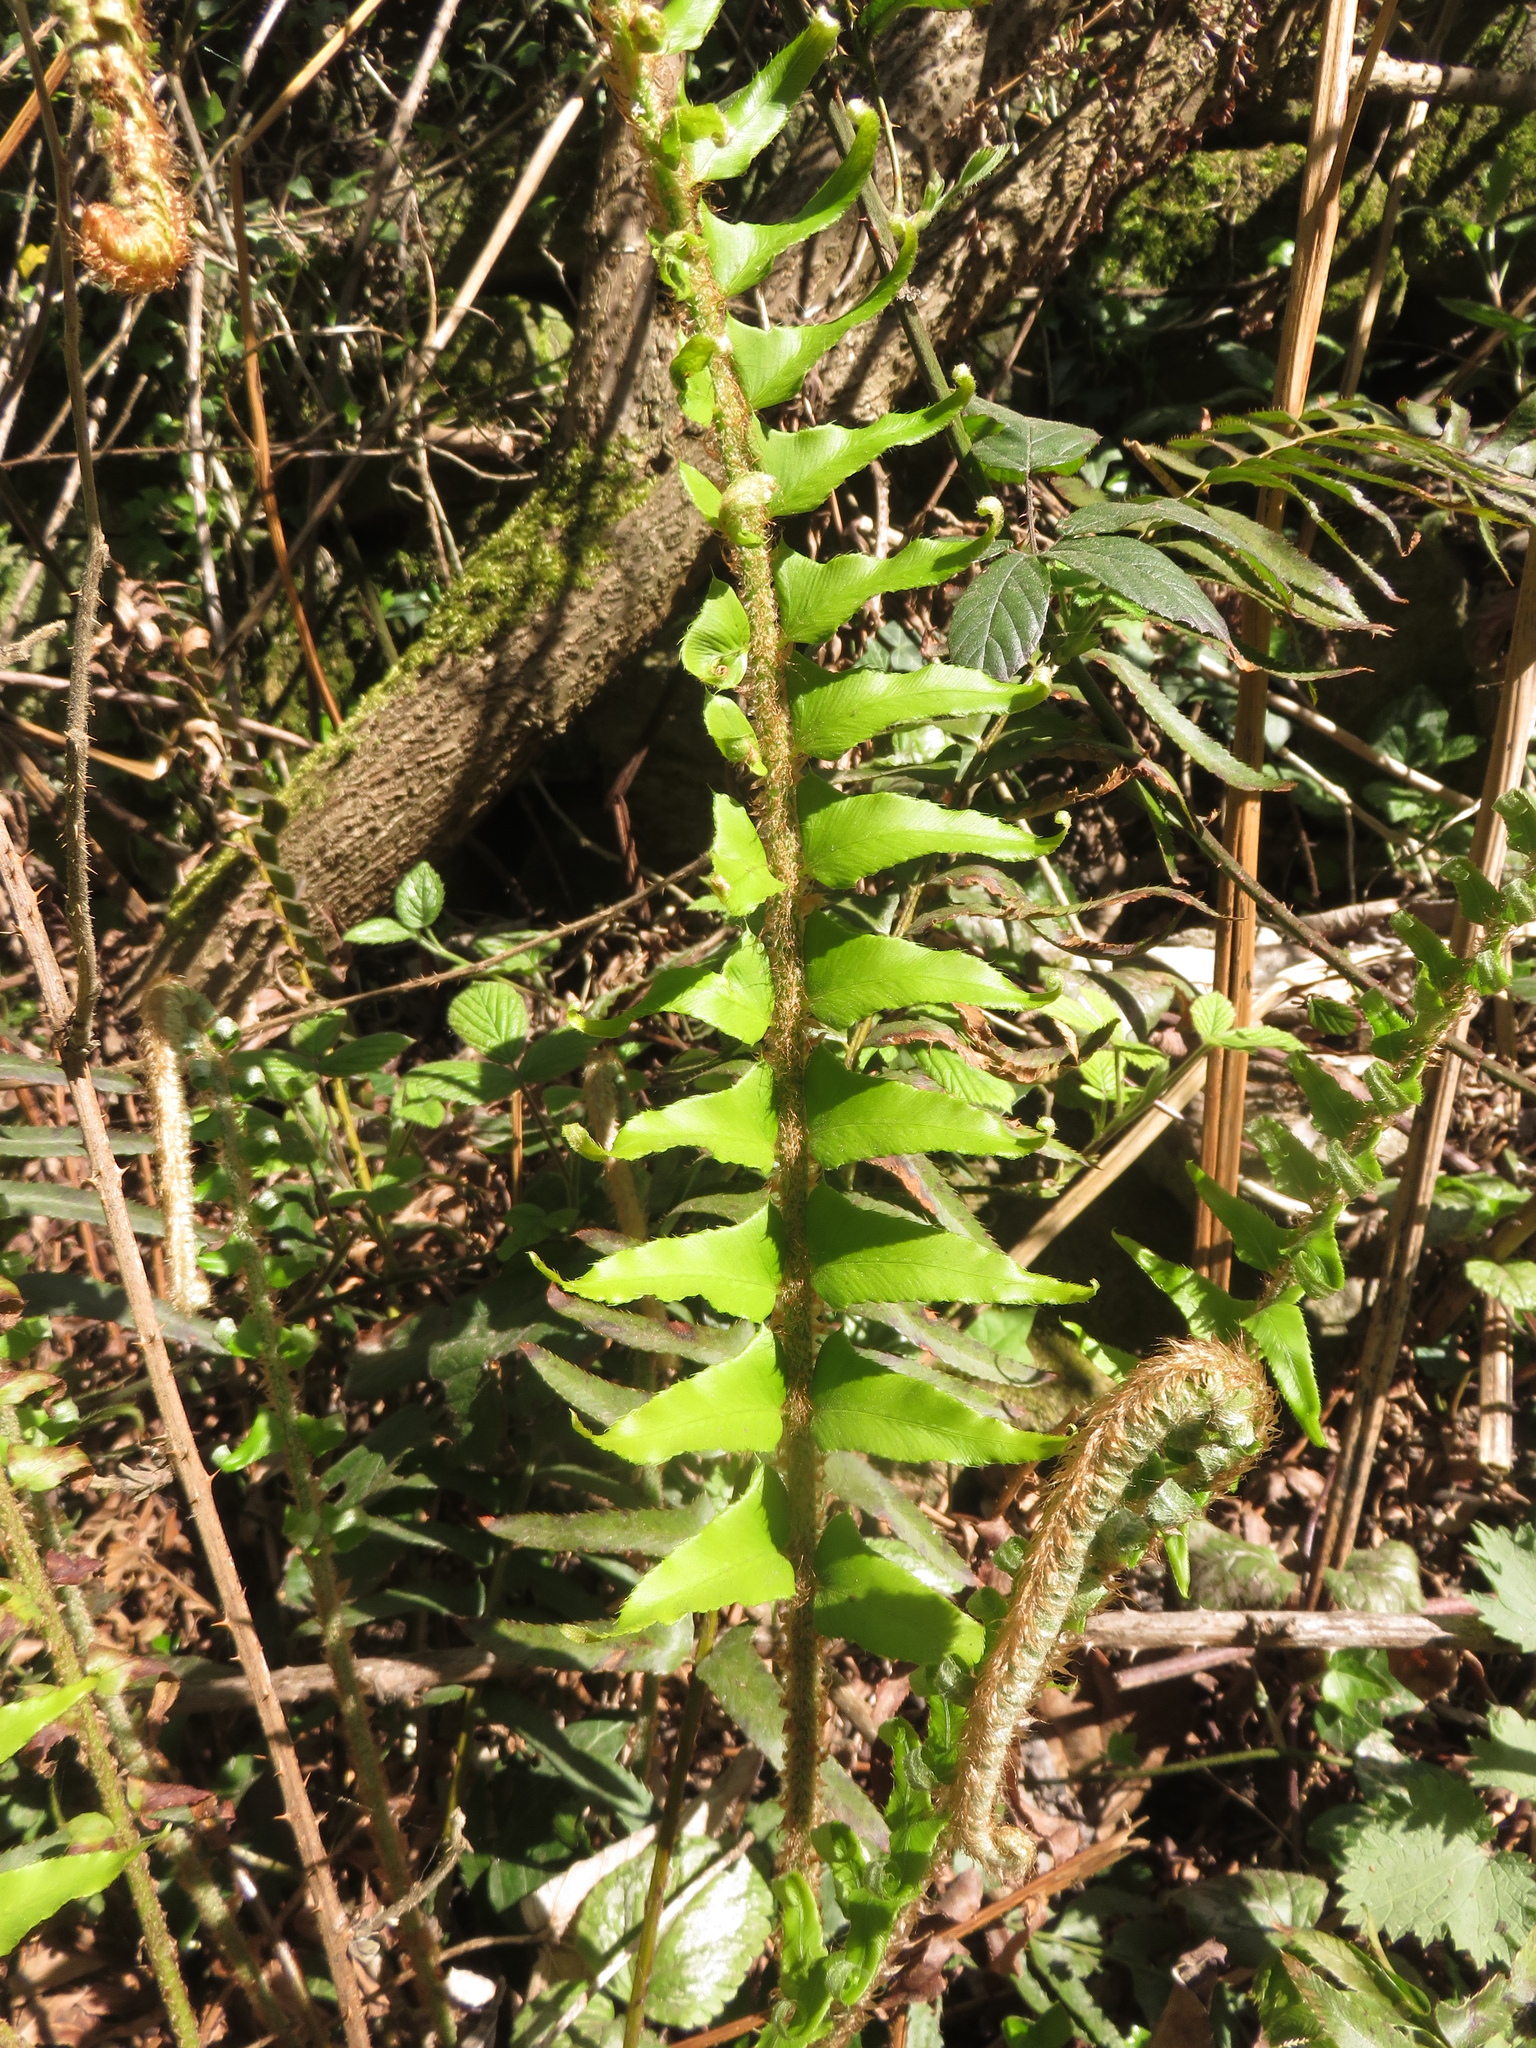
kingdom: Plantae
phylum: Tracheophyta
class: Polypodiopsida
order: Polypodiales
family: Dryopteridaceae
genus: Polystichum
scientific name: Polystichum munitum
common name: Western sword-fern
